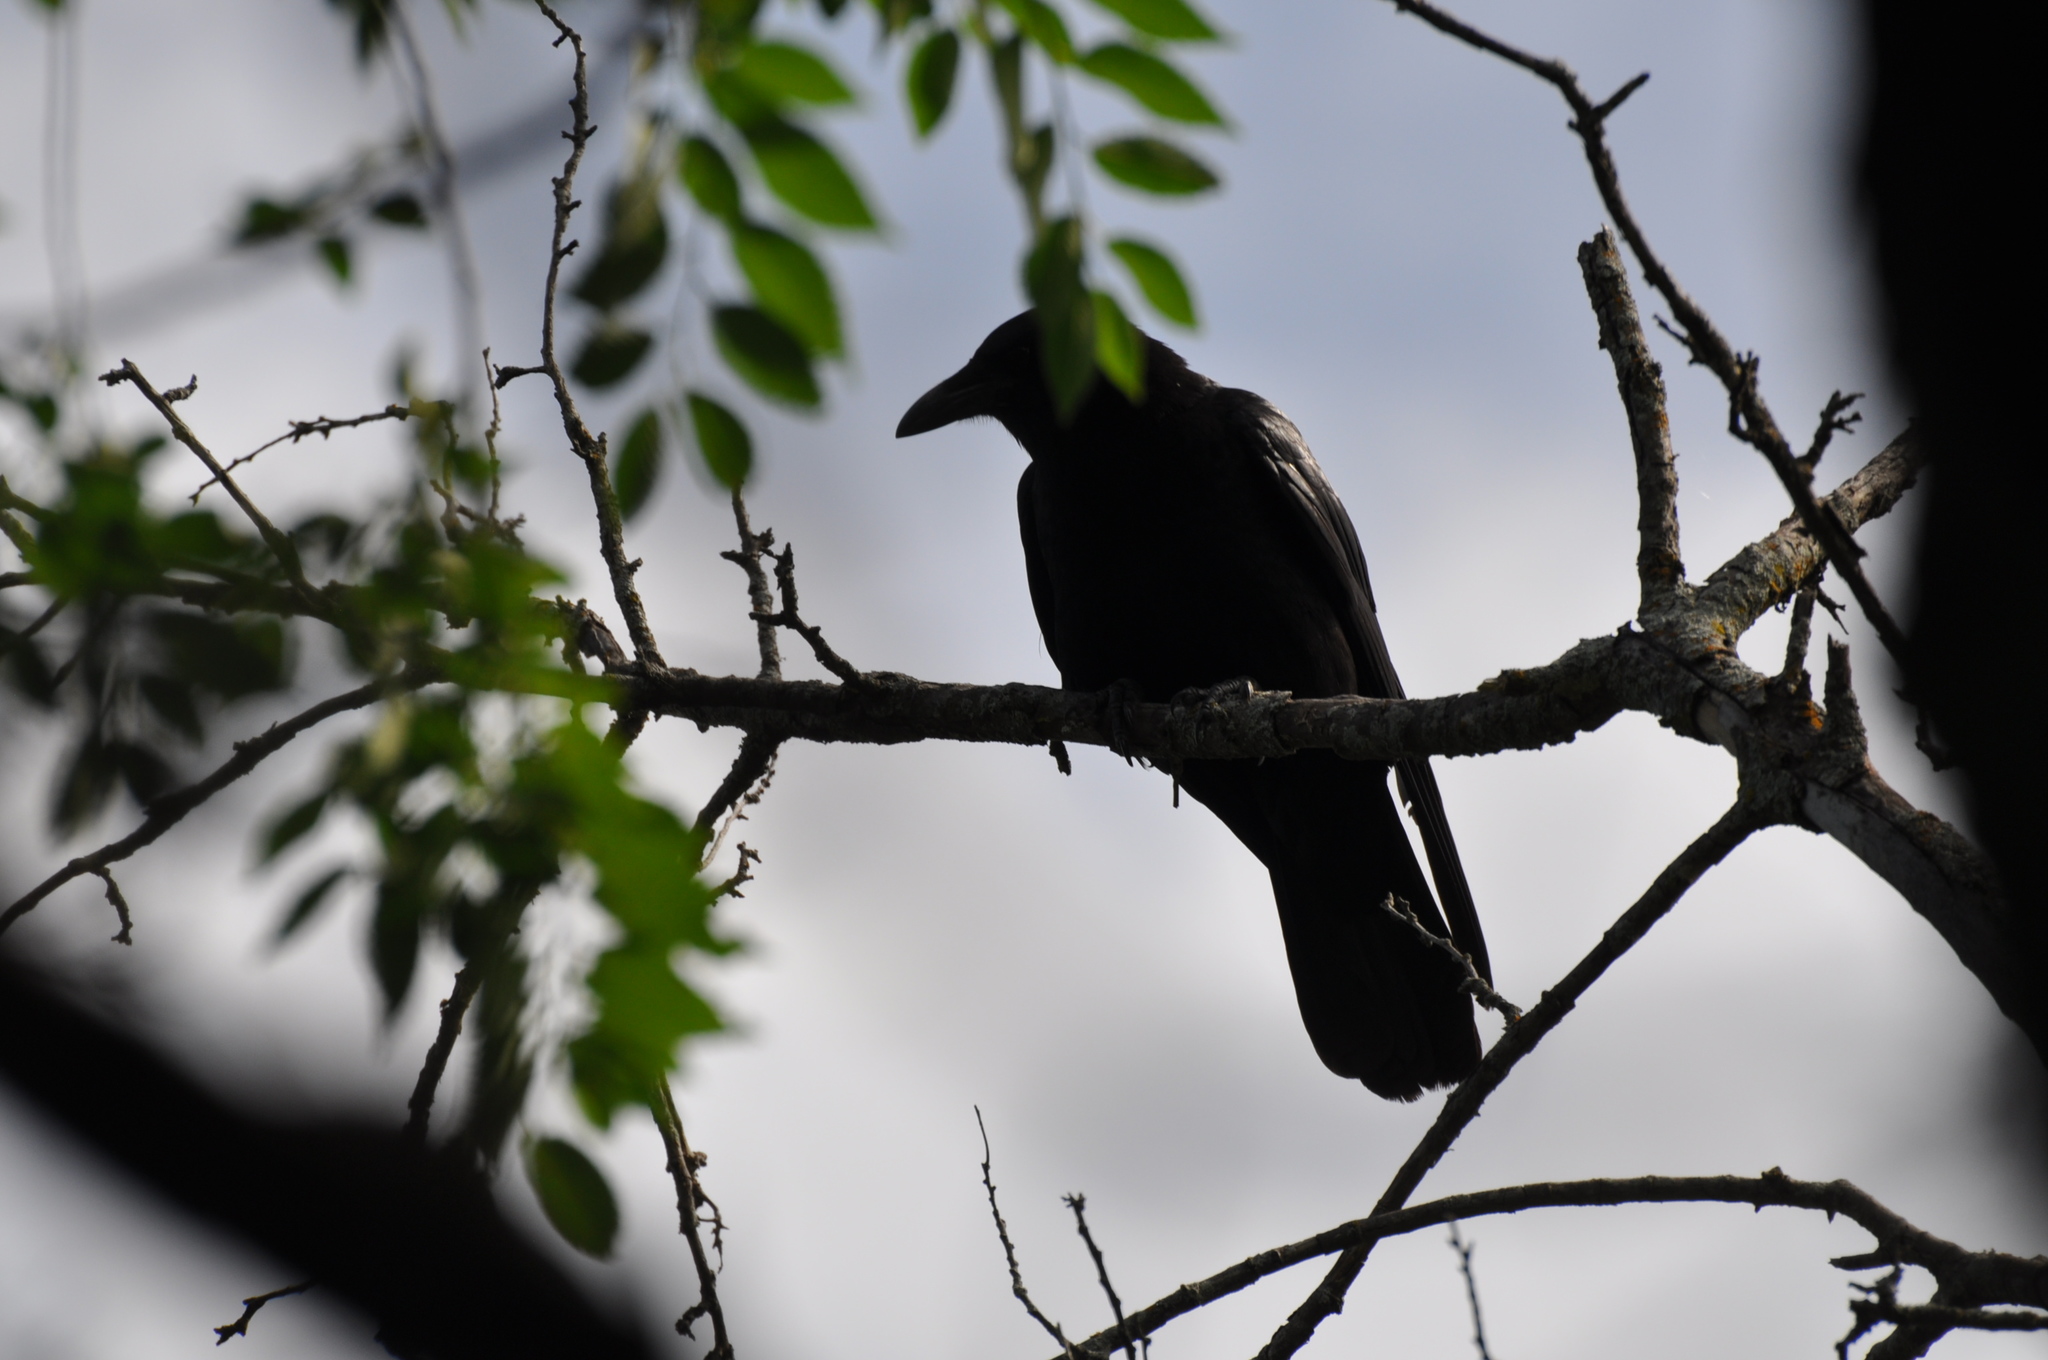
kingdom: Animalia
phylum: Chordata
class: Aves
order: Passeriformes
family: Corvidae
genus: Corvus
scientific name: Corvus brachyrhynchos
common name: American crow
